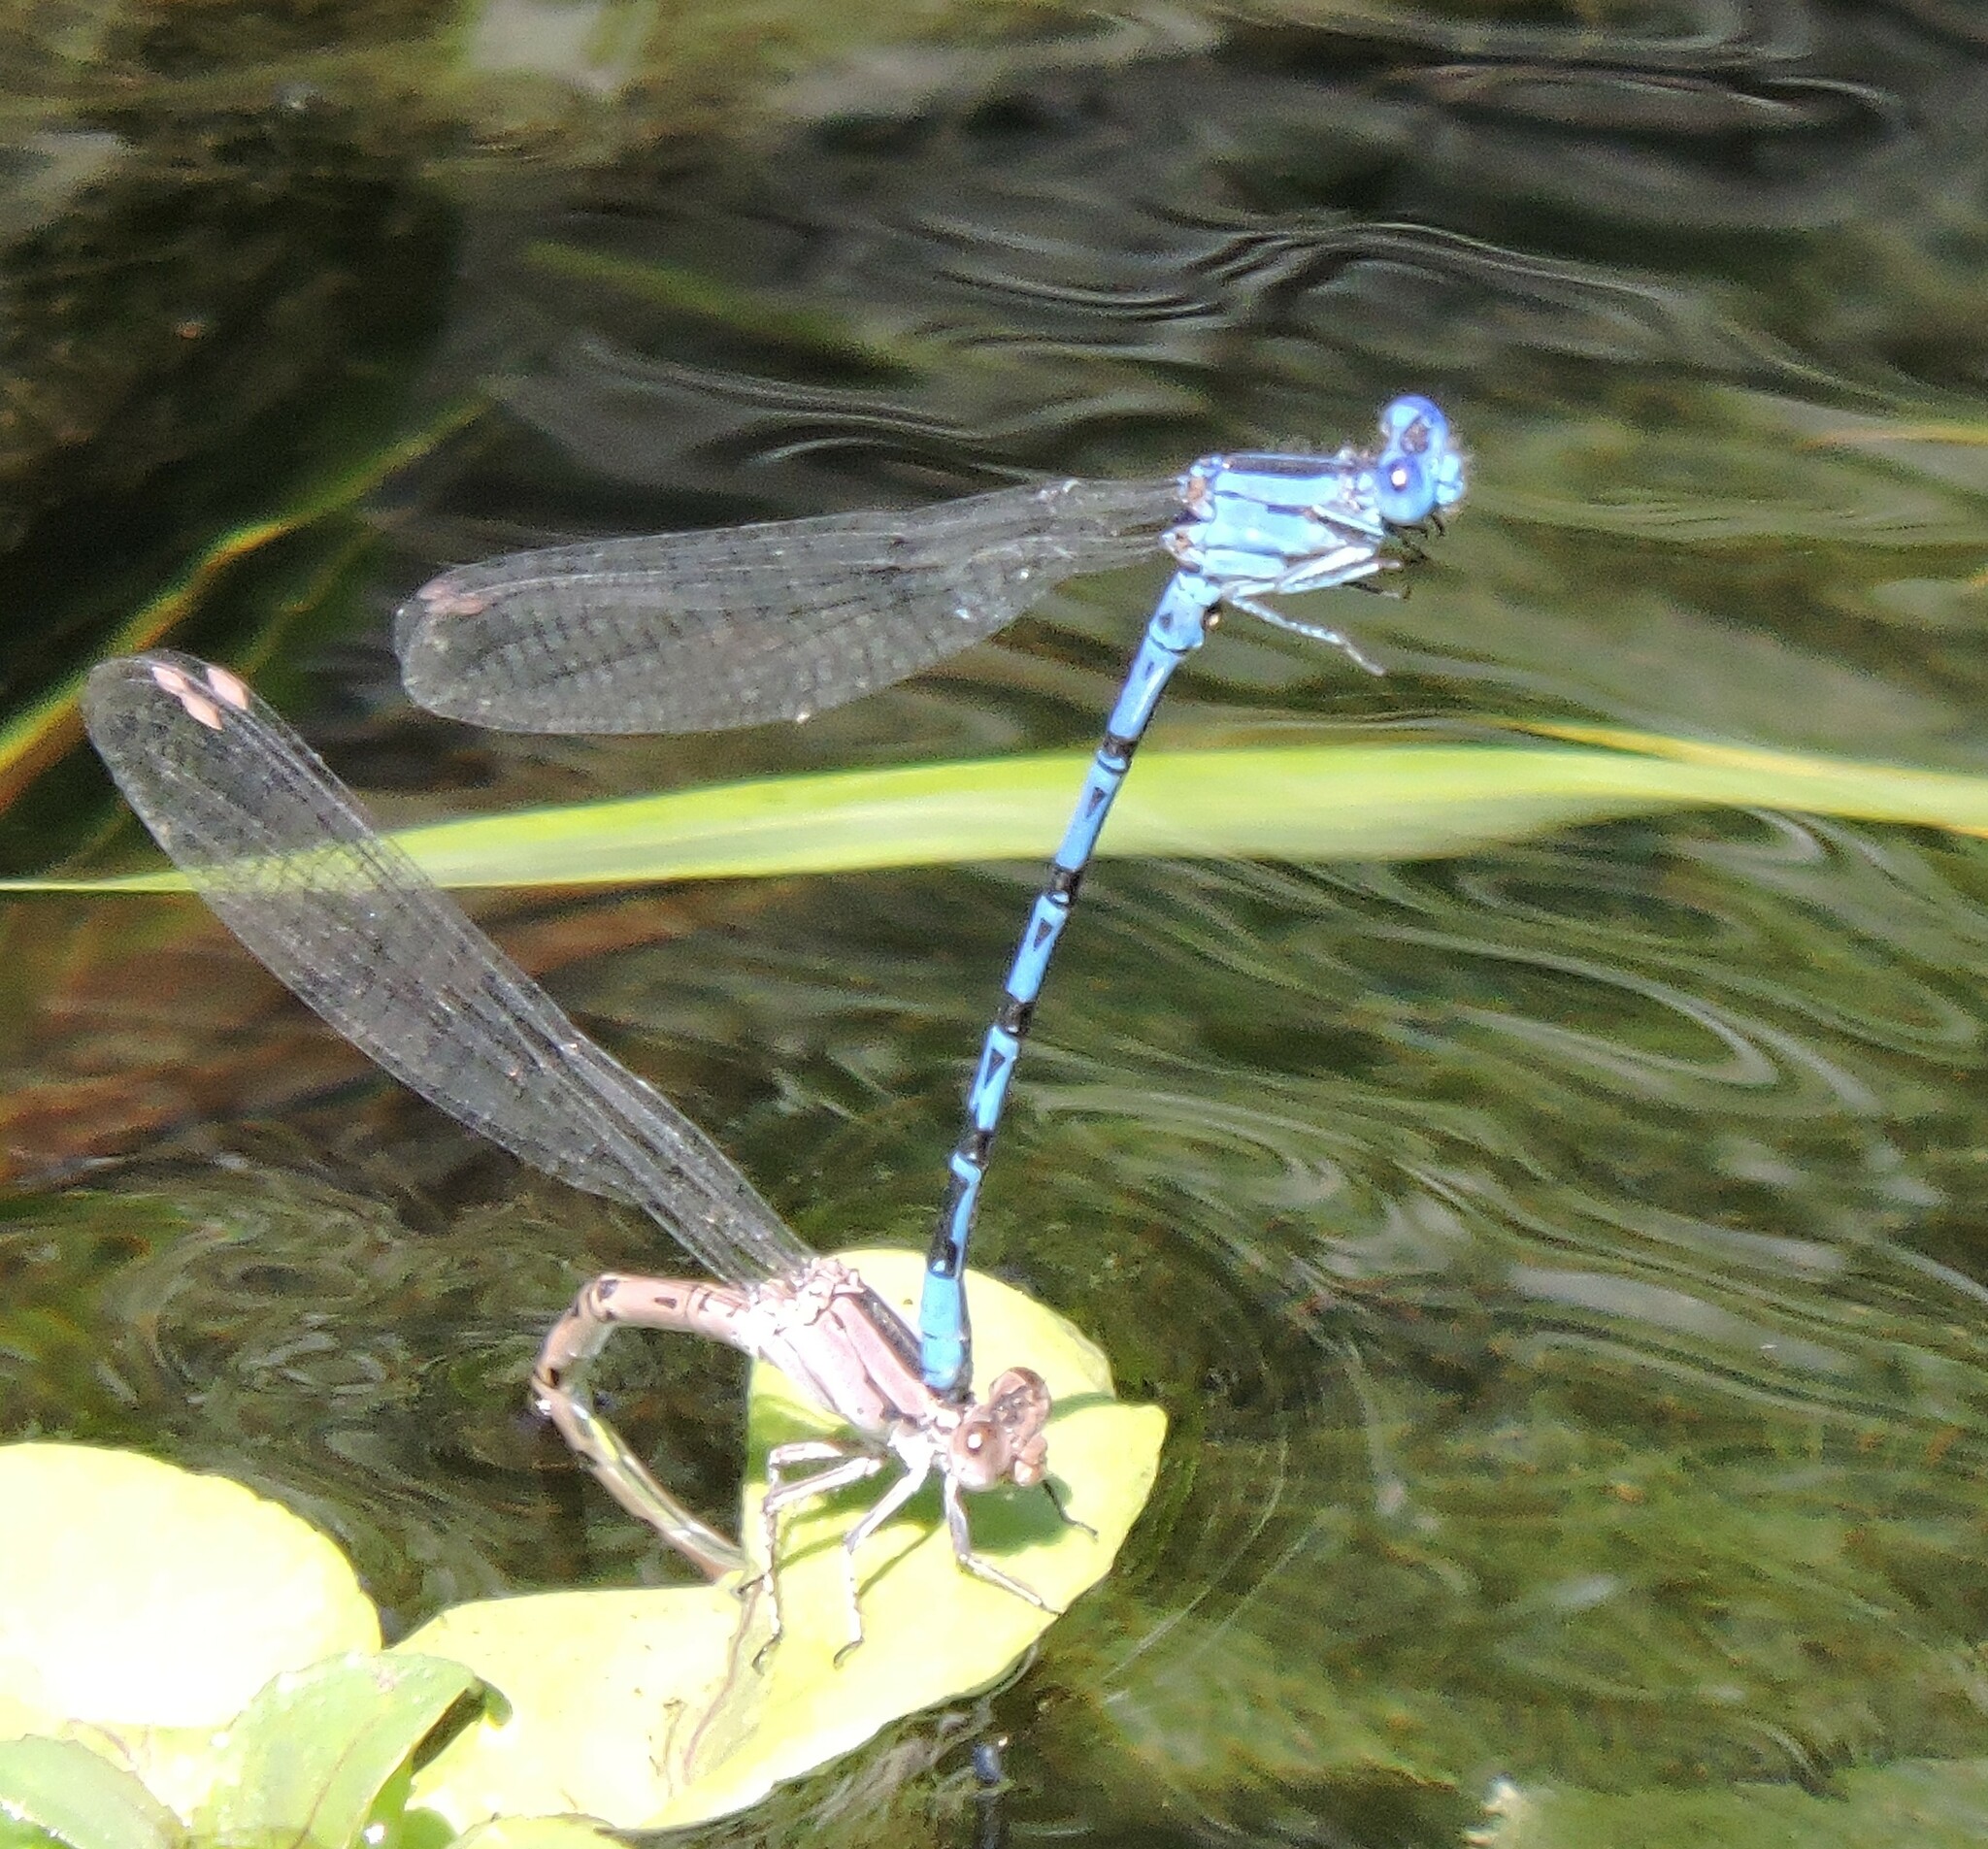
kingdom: Animalia
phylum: Arthropoda
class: Insecta
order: Odonata
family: Coenagrionidae
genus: Argia
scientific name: Argia vivida
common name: Vivid dancer
